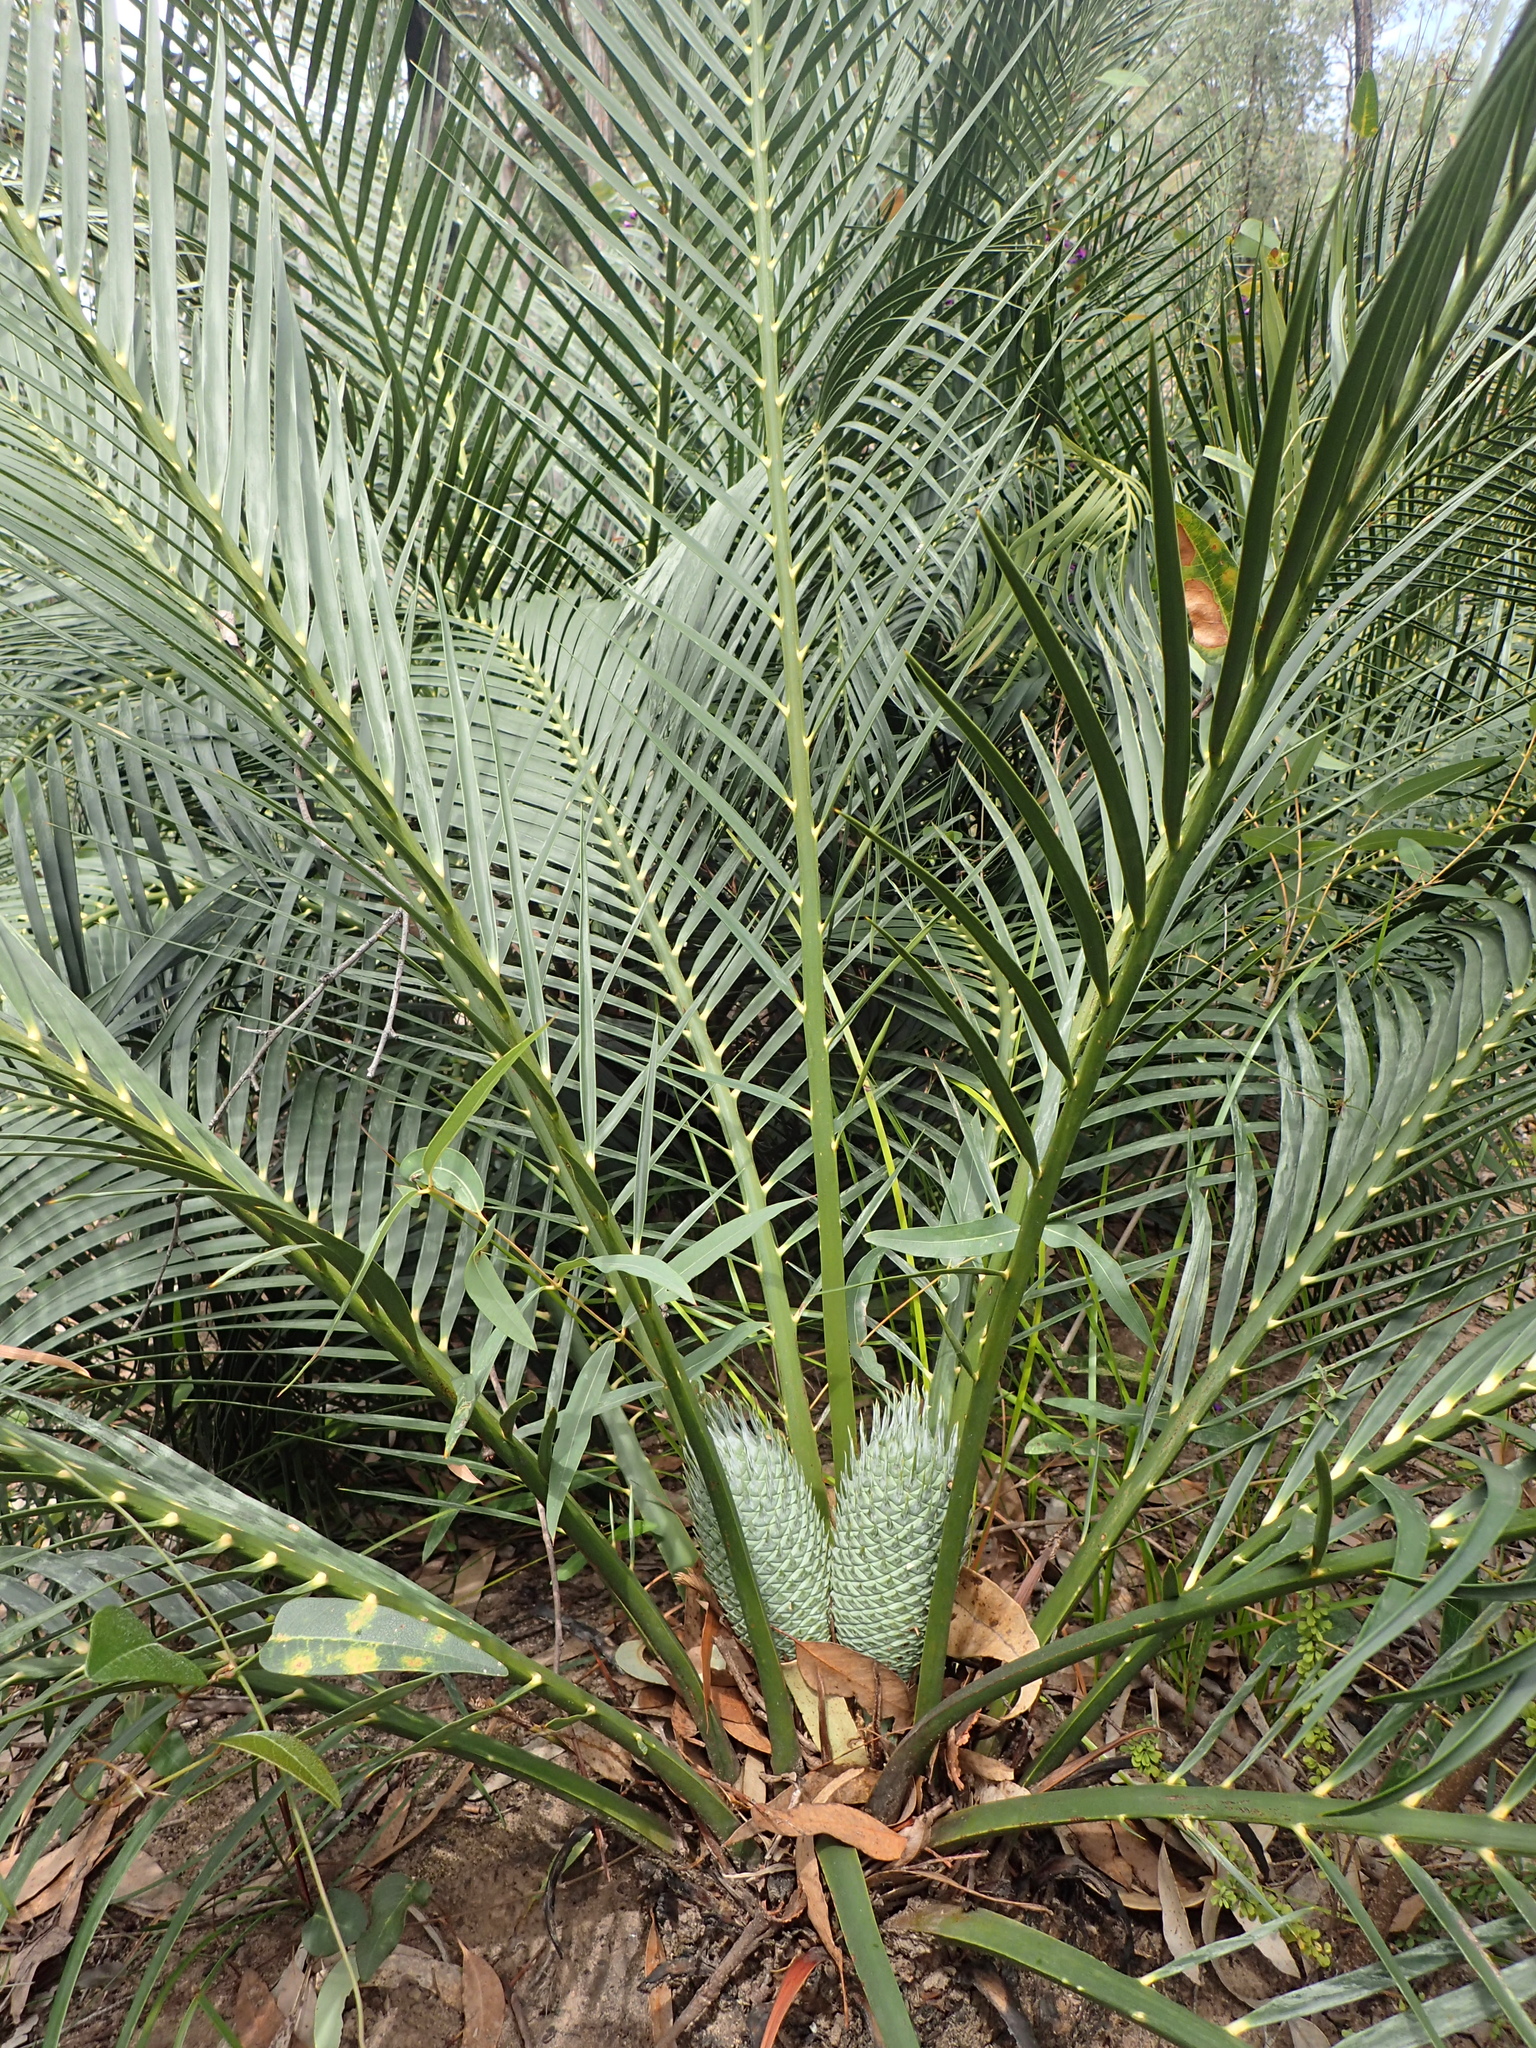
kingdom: Plantae
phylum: Tracheophyta
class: Cycadopsida
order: Cycadales
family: Zamiaceae
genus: Macrozamia
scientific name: Macrozamia reducta
